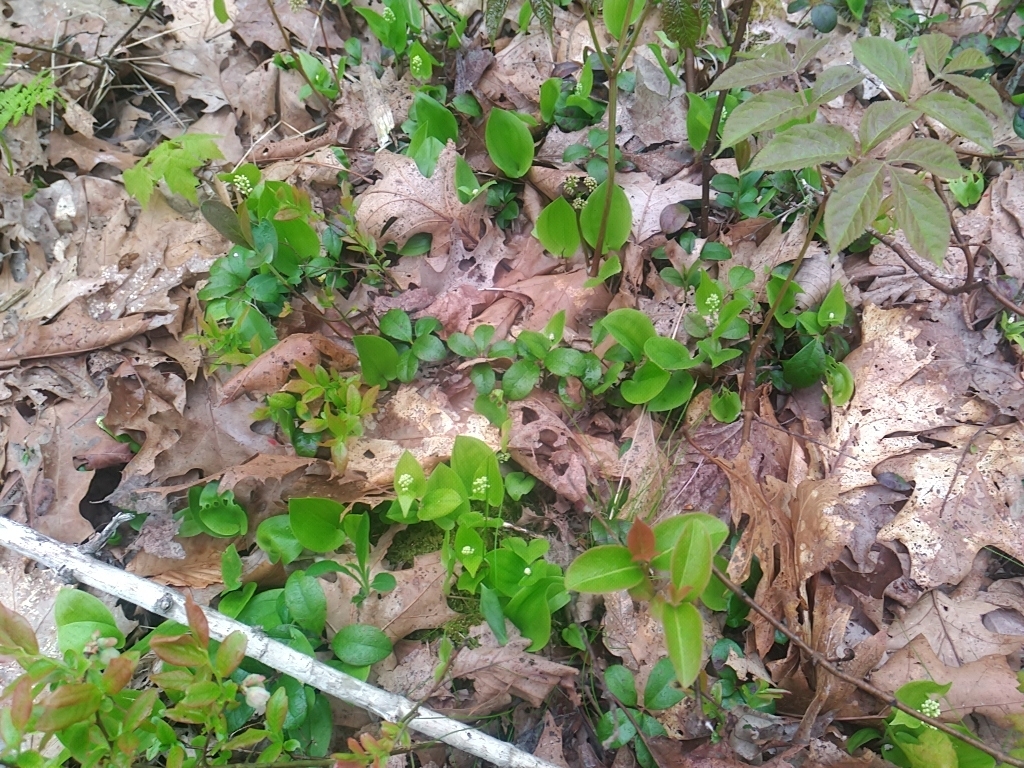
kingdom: Plantae
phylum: Tracheophyta
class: Liliopsida
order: Asparagales
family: Asparagaceae
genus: Maianthemum
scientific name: Maianthemum canadense
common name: False lily-of-the-valley
